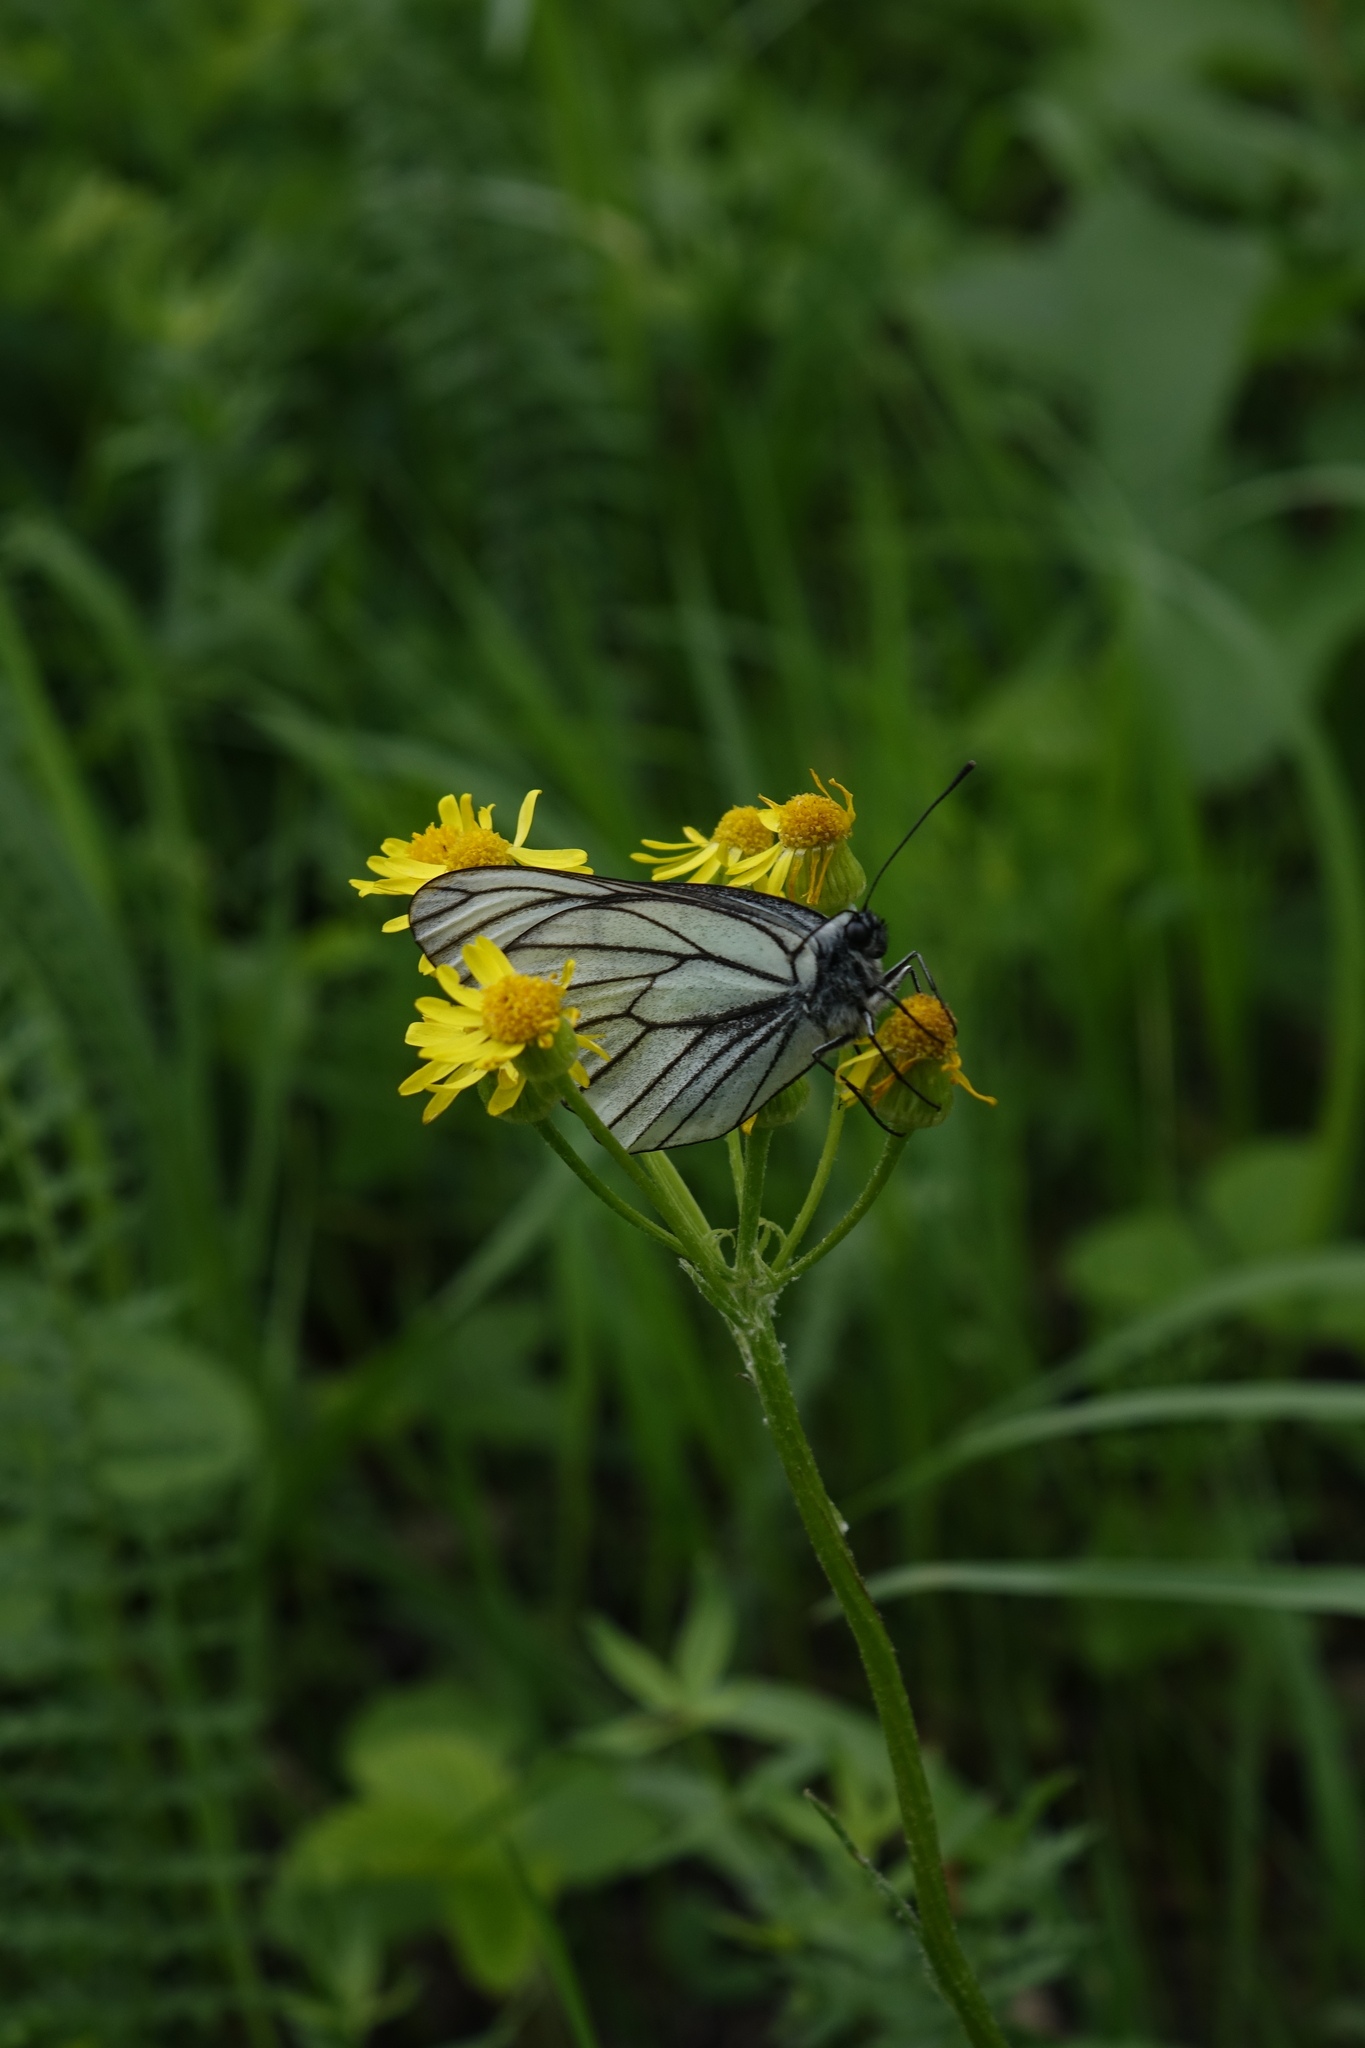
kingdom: Plantae
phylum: Tracheophyta
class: Magnoliopsida
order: Asterales
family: Asteraceae
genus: Tephroseris
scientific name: Tephroseris integrifolia
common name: Field fleawort
